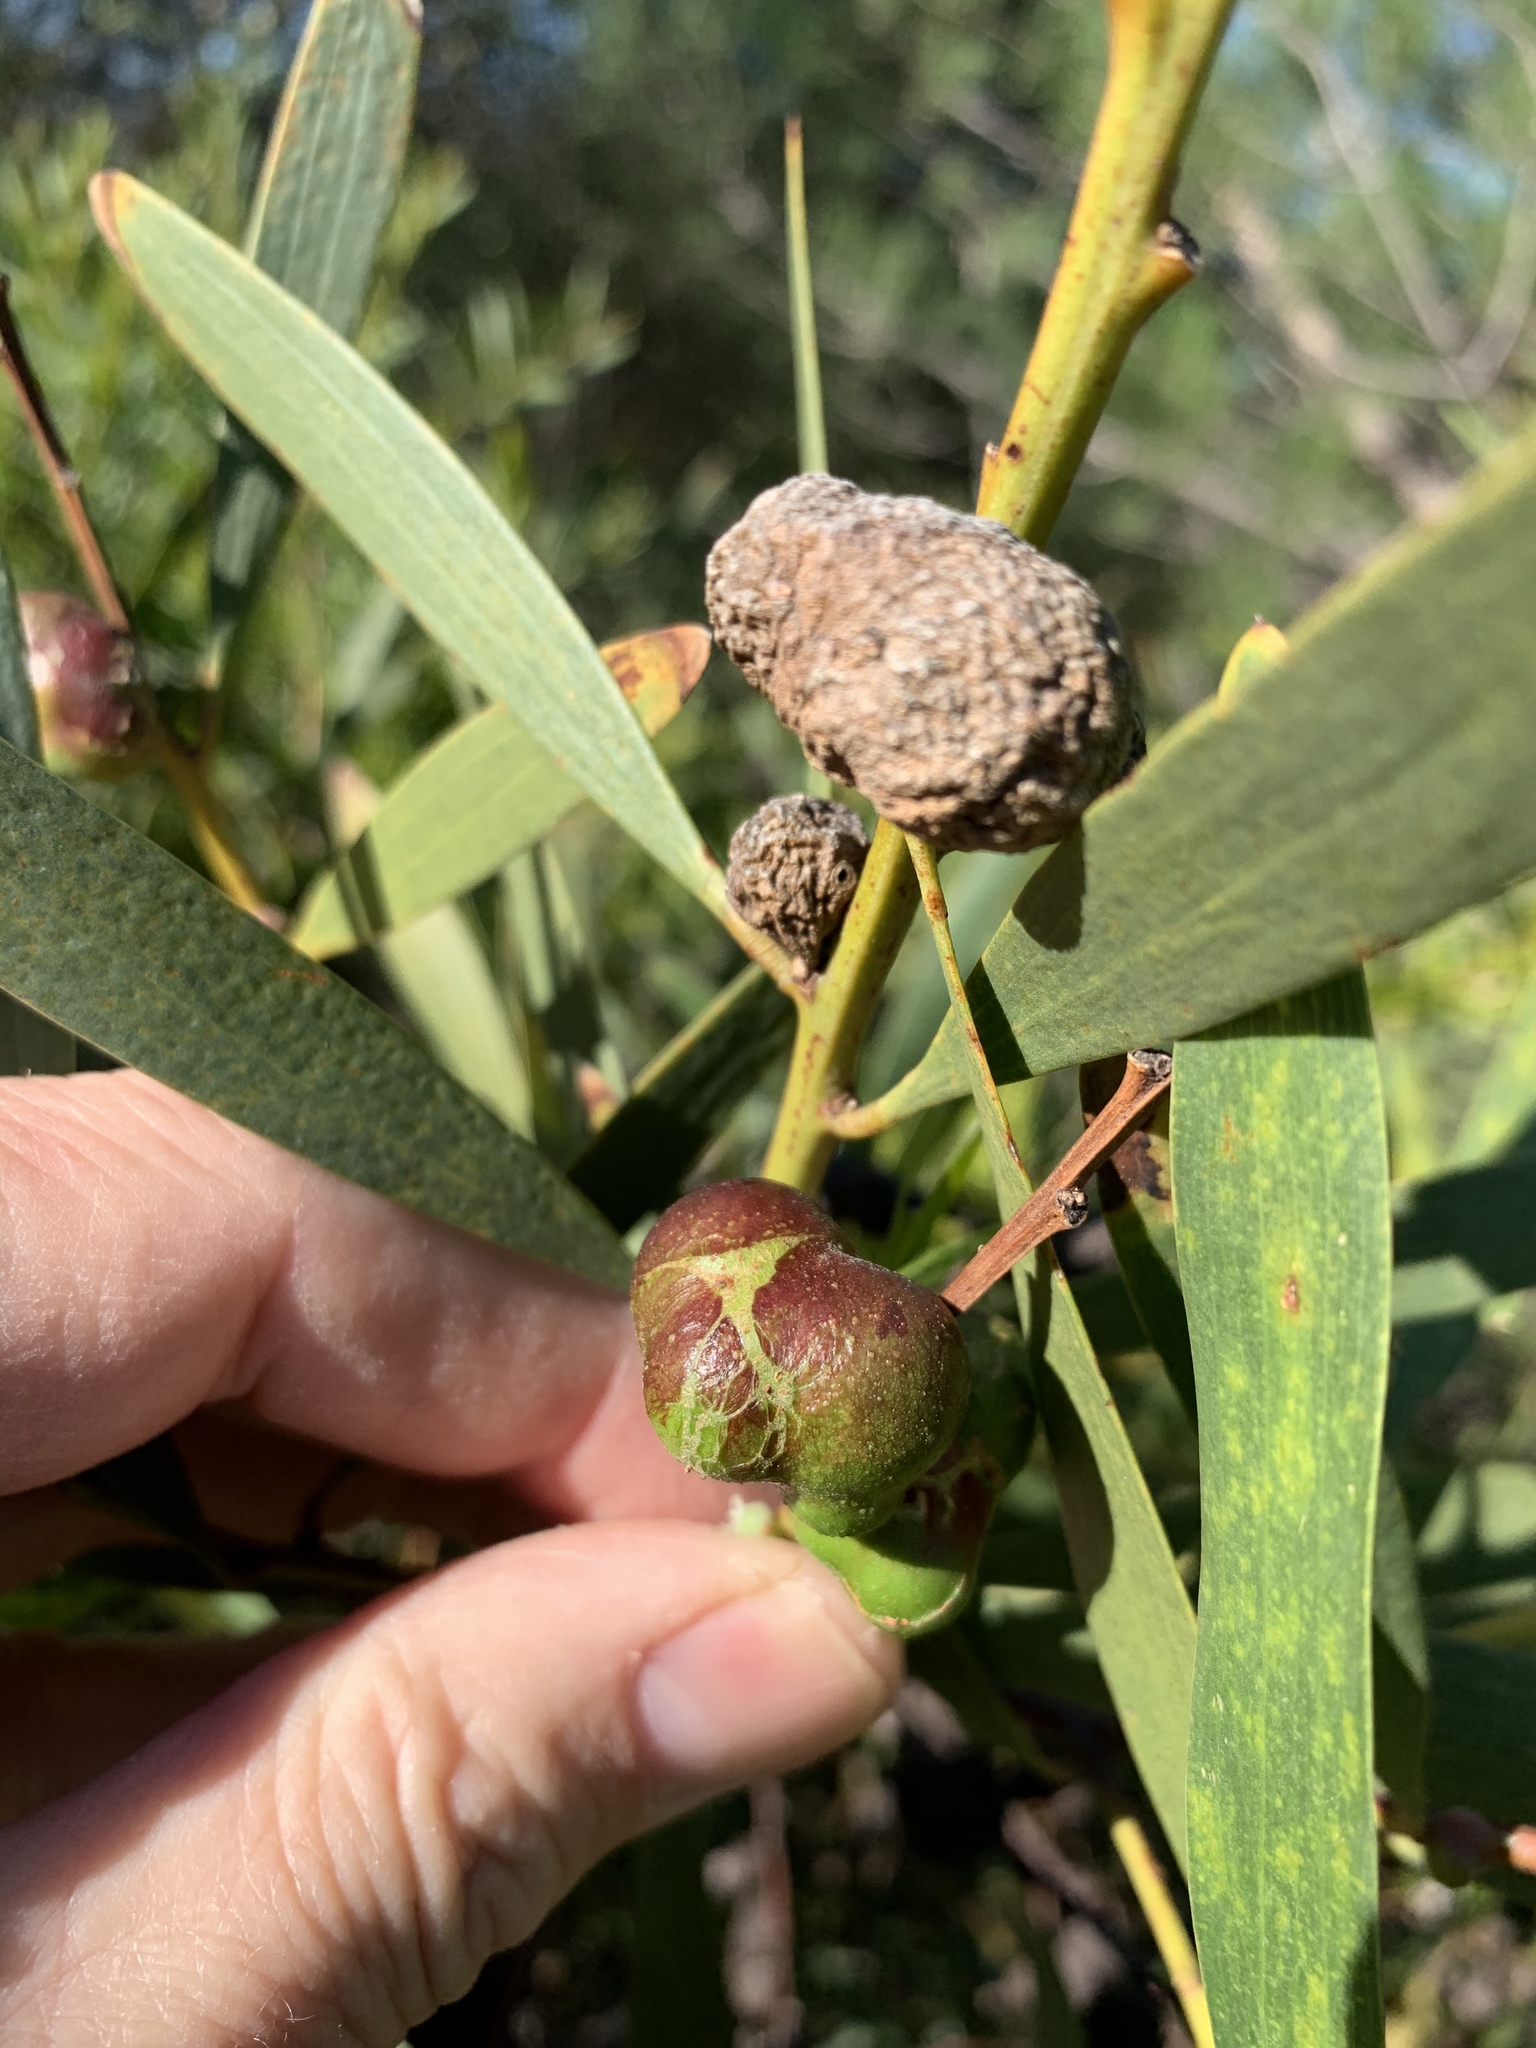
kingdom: Animalia
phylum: Arthropoda
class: Insecta
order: Hymenoptera
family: Pteromalidae
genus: Trichilogaster
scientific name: Trichilogaster acaciaelongifoliae
